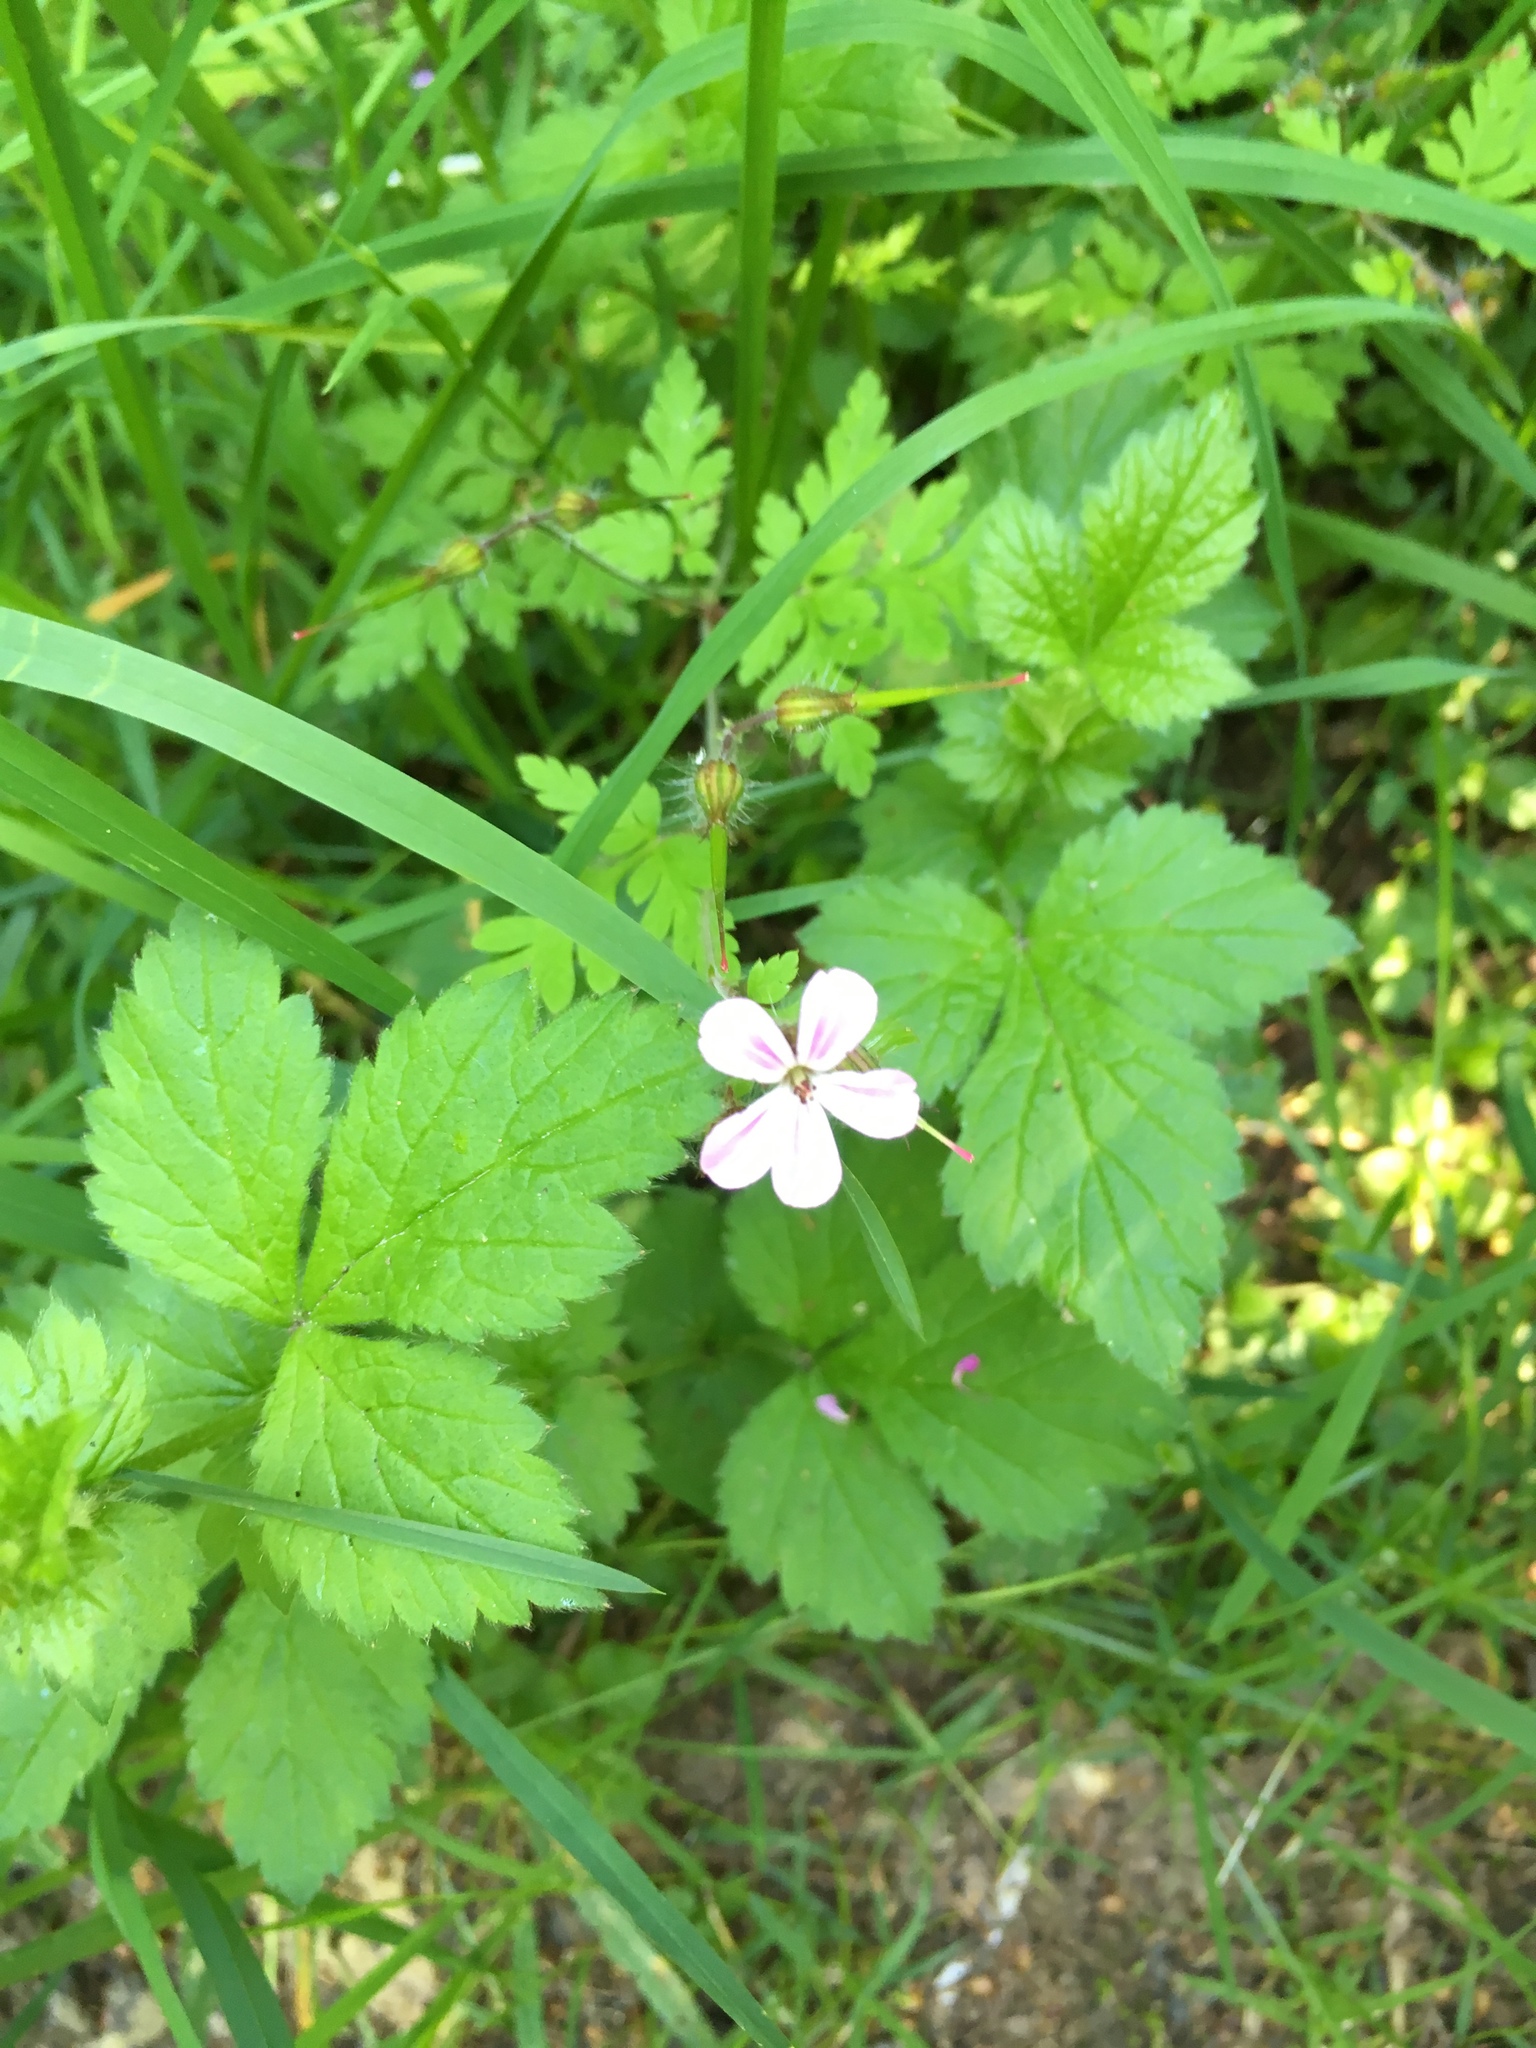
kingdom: Plantae
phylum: Tracheophyta
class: Magnoliopsida
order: Geraniales
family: Geraniaceae
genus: Geranium
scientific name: Geranium robertianum
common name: Herb-robert
